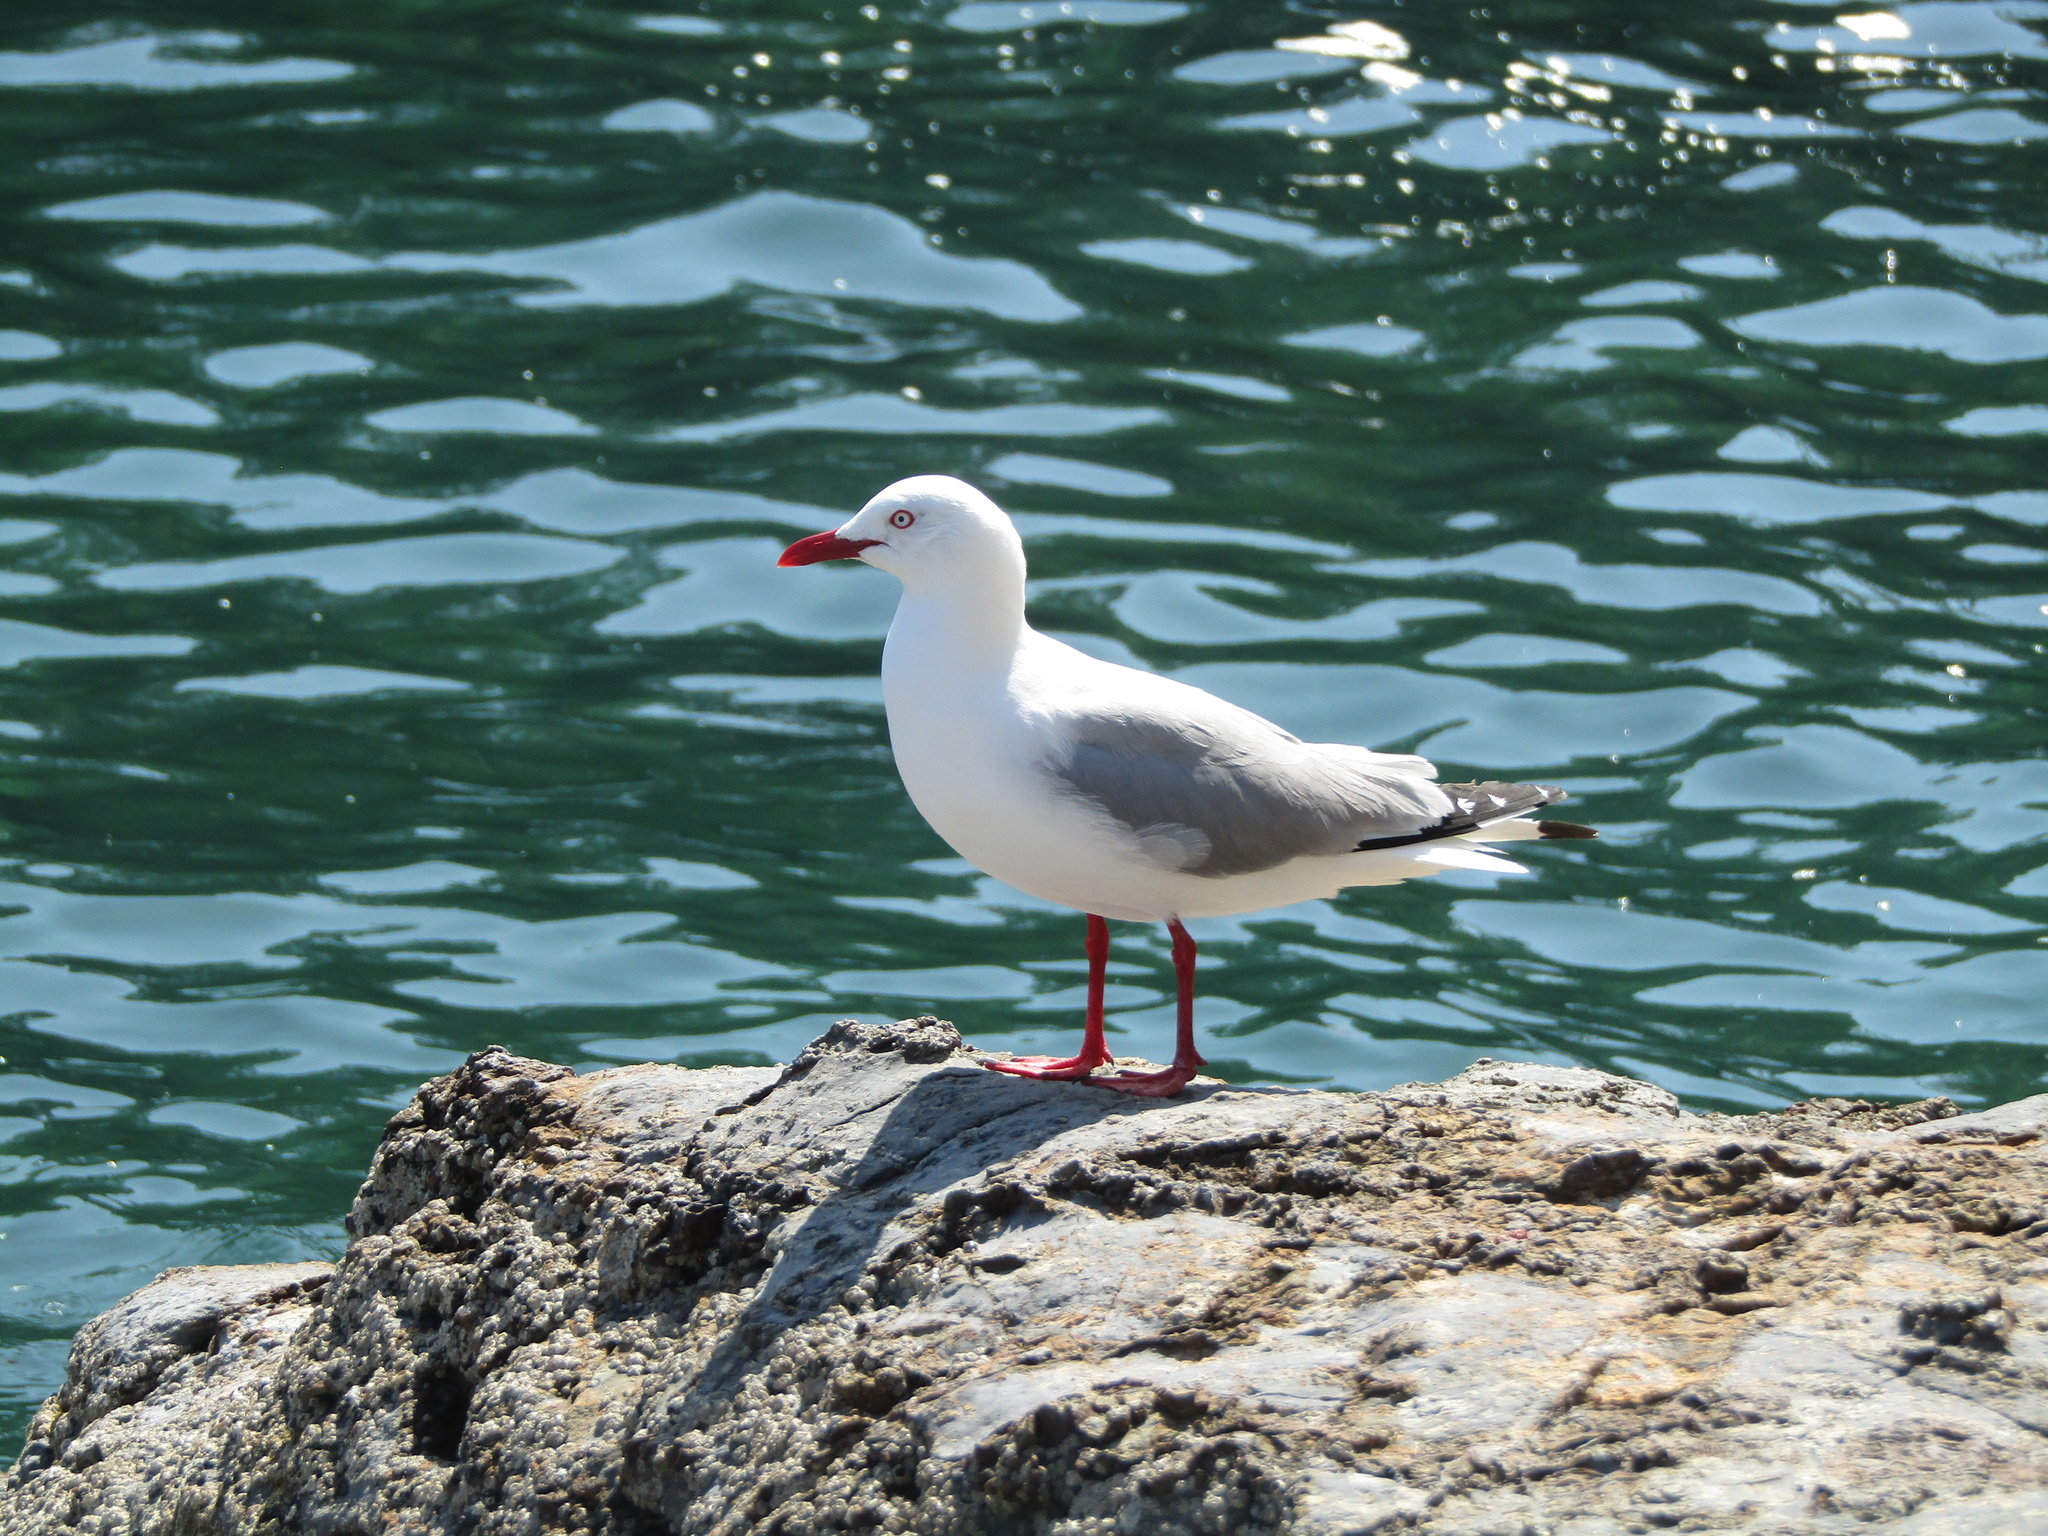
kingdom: Animalia
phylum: Chordata
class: Aves
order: Charadriiformes
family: Laridae
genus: Chroicocephalus
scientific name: Chroicocephalus novaehollandiae
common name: Silver gull
